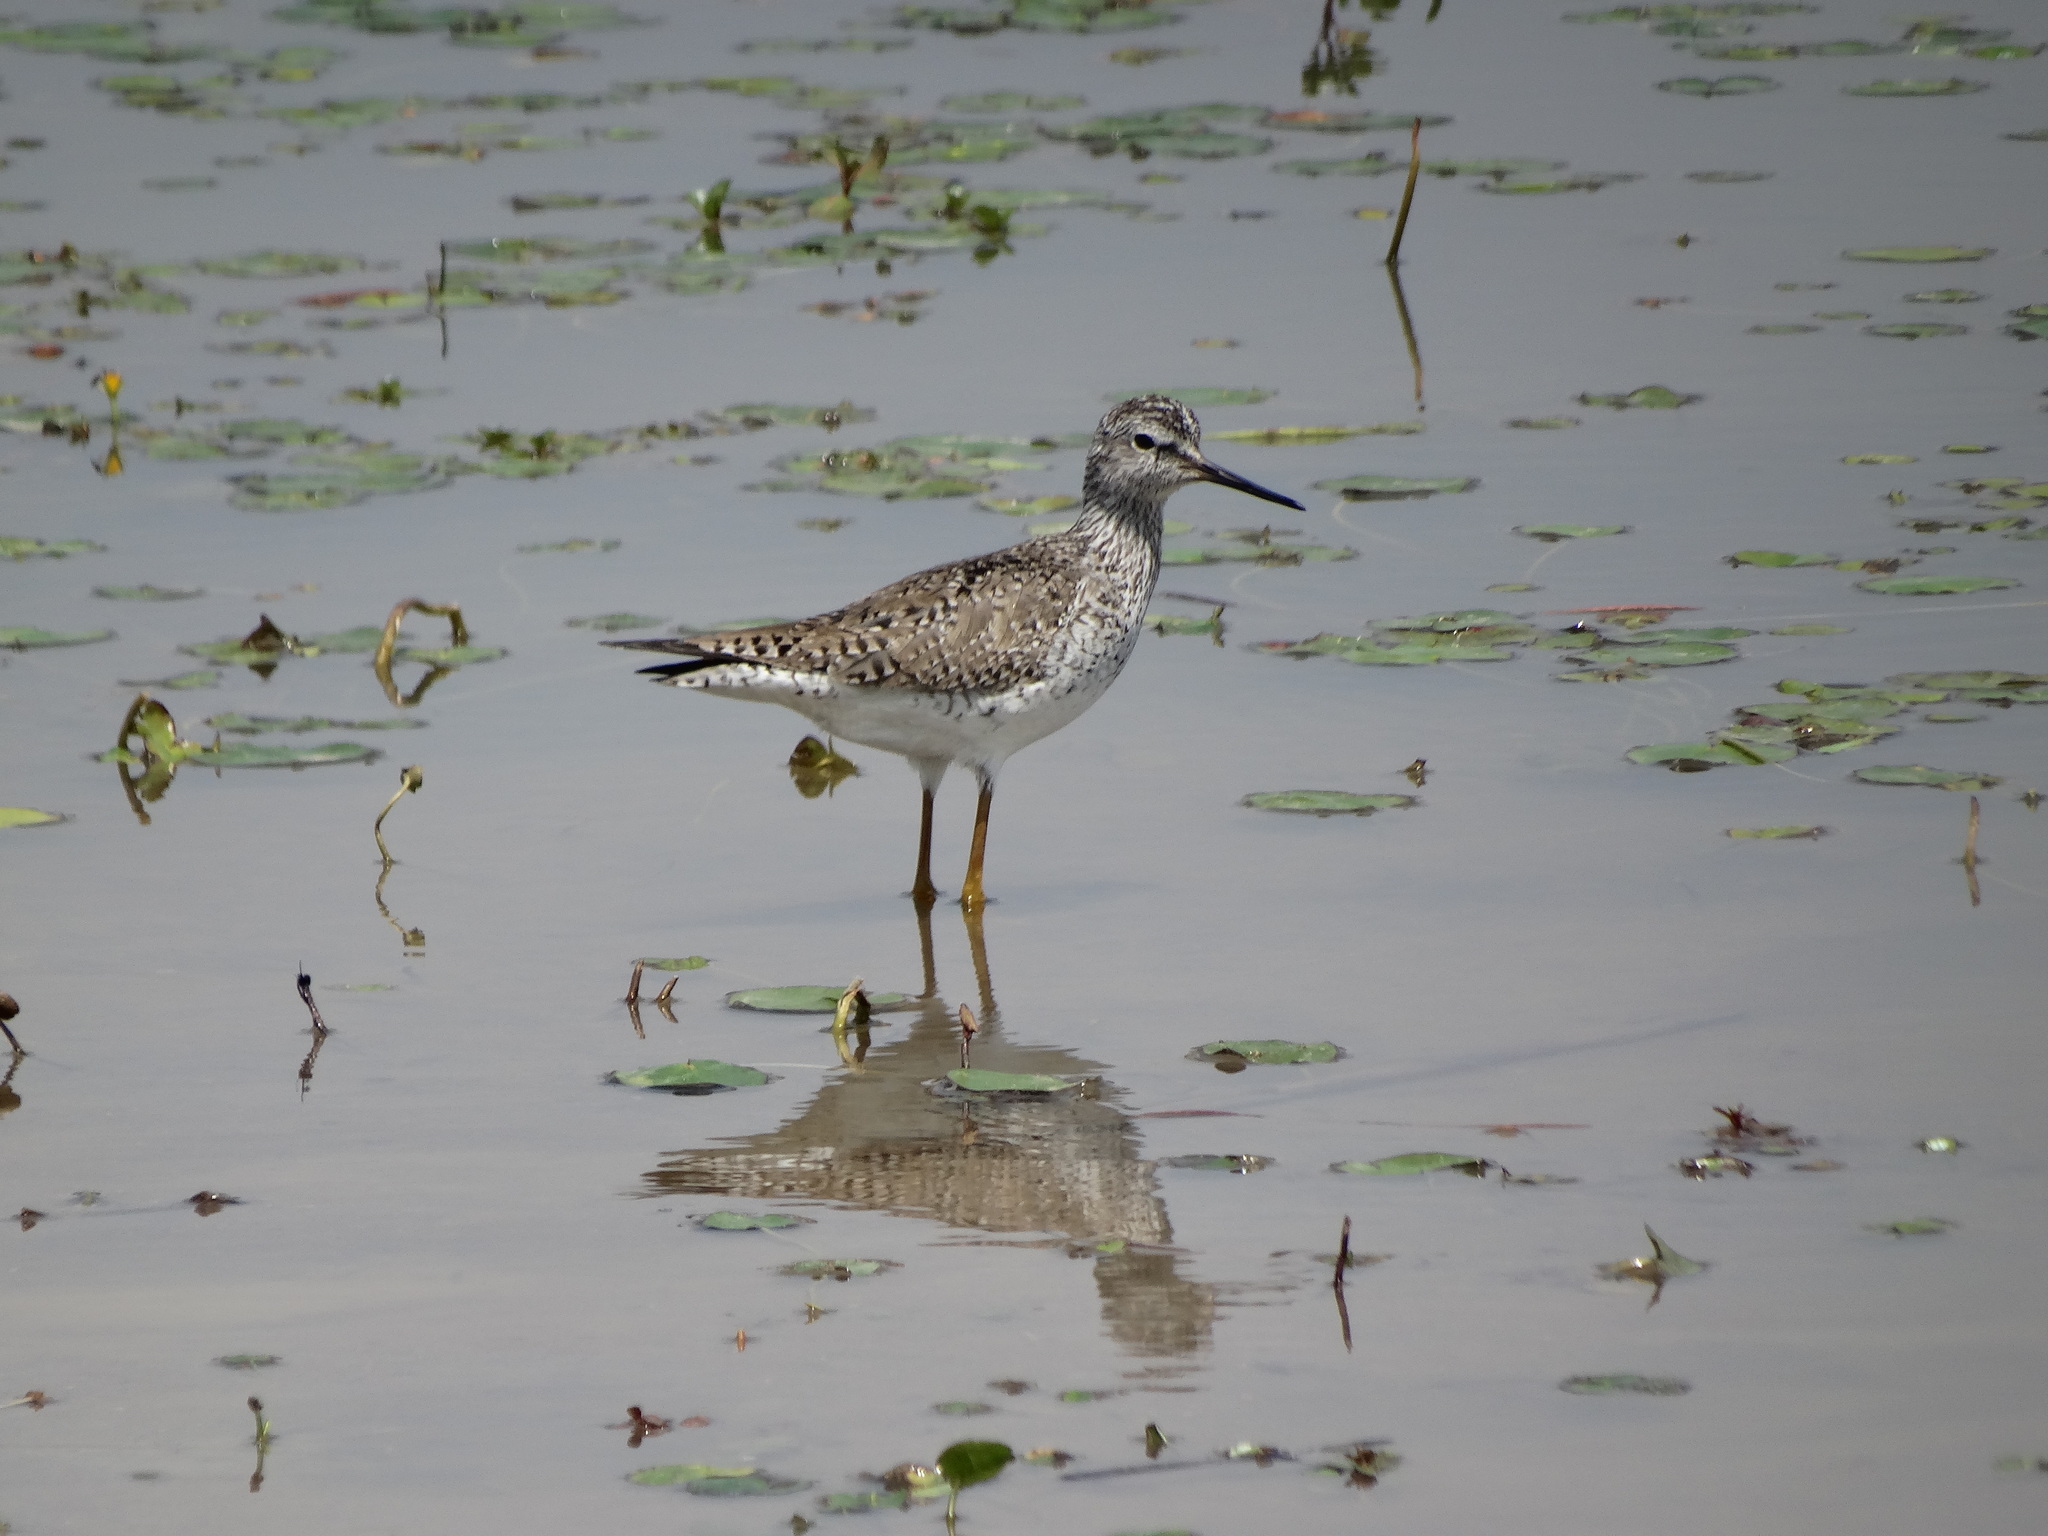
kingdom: Animalia
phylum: Chordata
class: Aves
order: Charadriiformes
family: Scolopacidae
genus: Tringa
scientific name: Tringa flavipes
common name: Lesser yellowlegs
